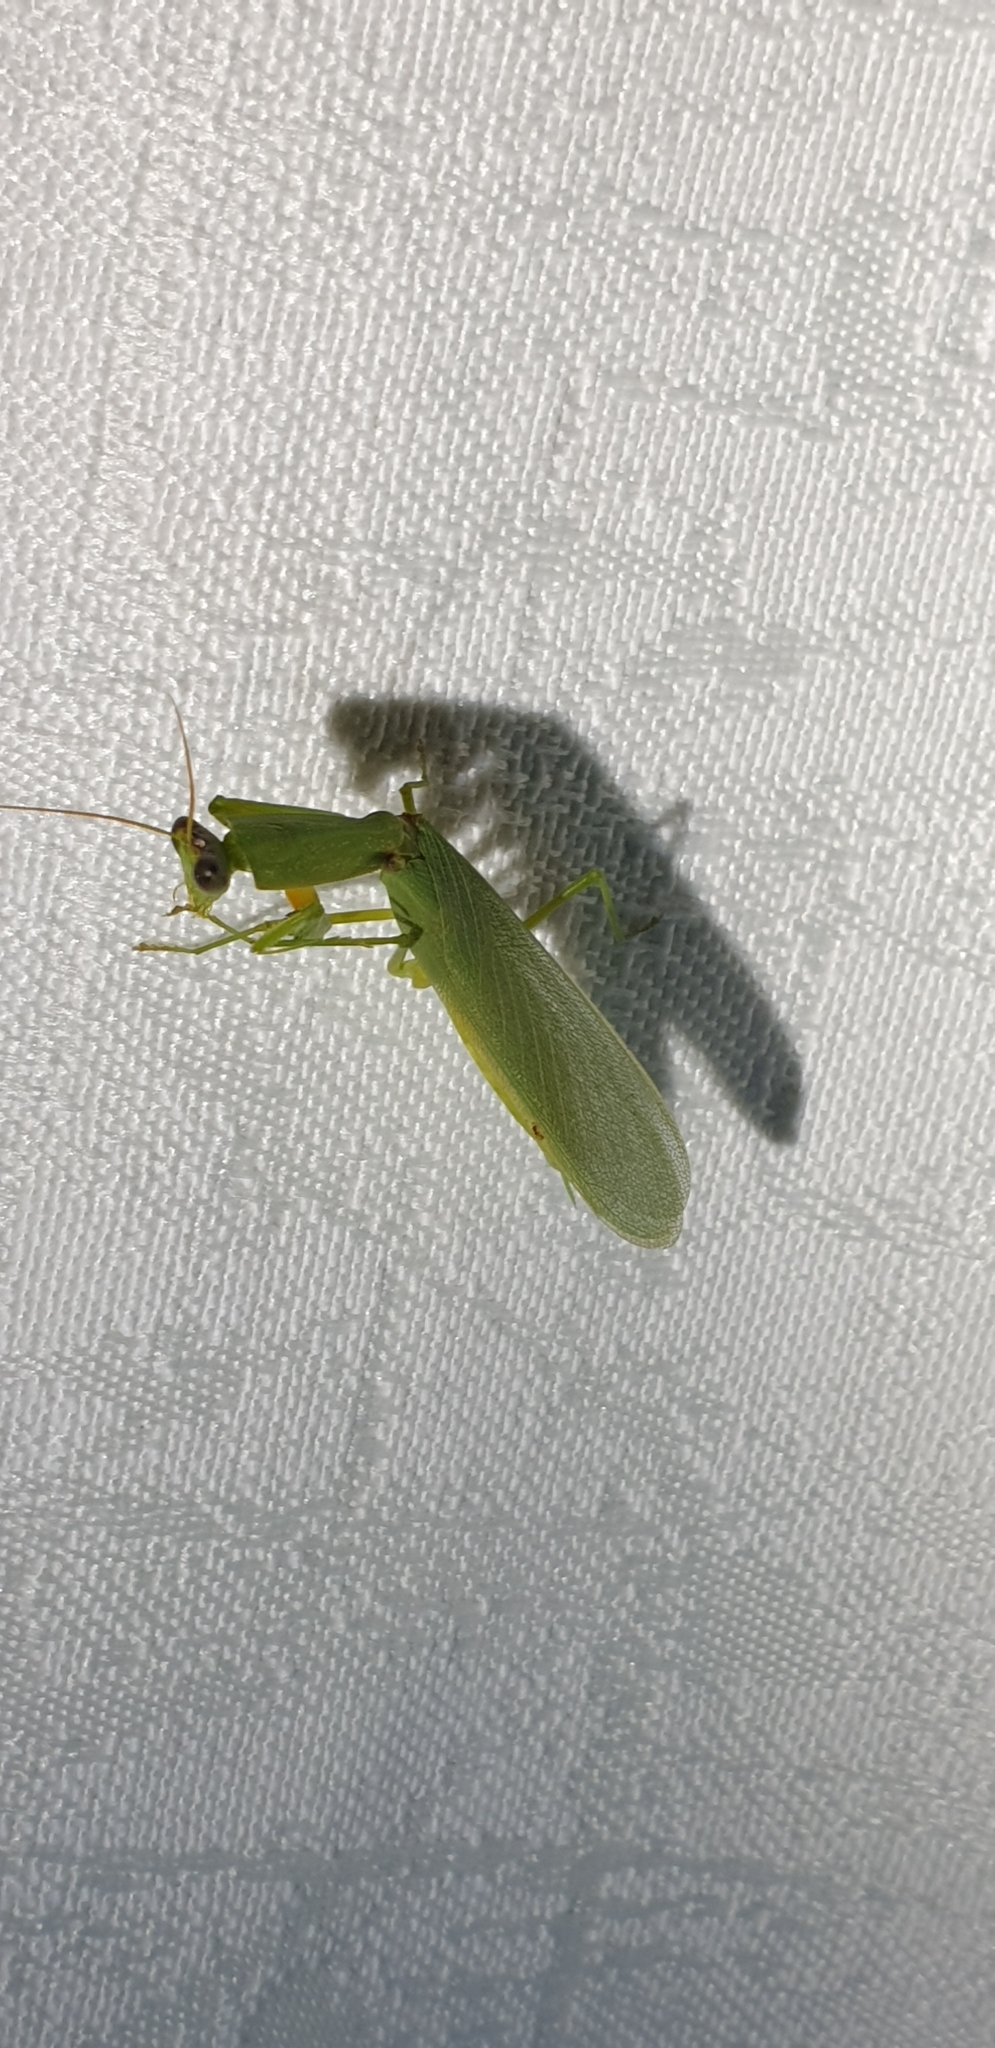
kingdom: Animalia
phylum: Arthropoda
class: Insecta
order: Mantodea
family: Mantidae
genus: Orthodera
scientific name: Orthodera ministralis
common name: Mantis
